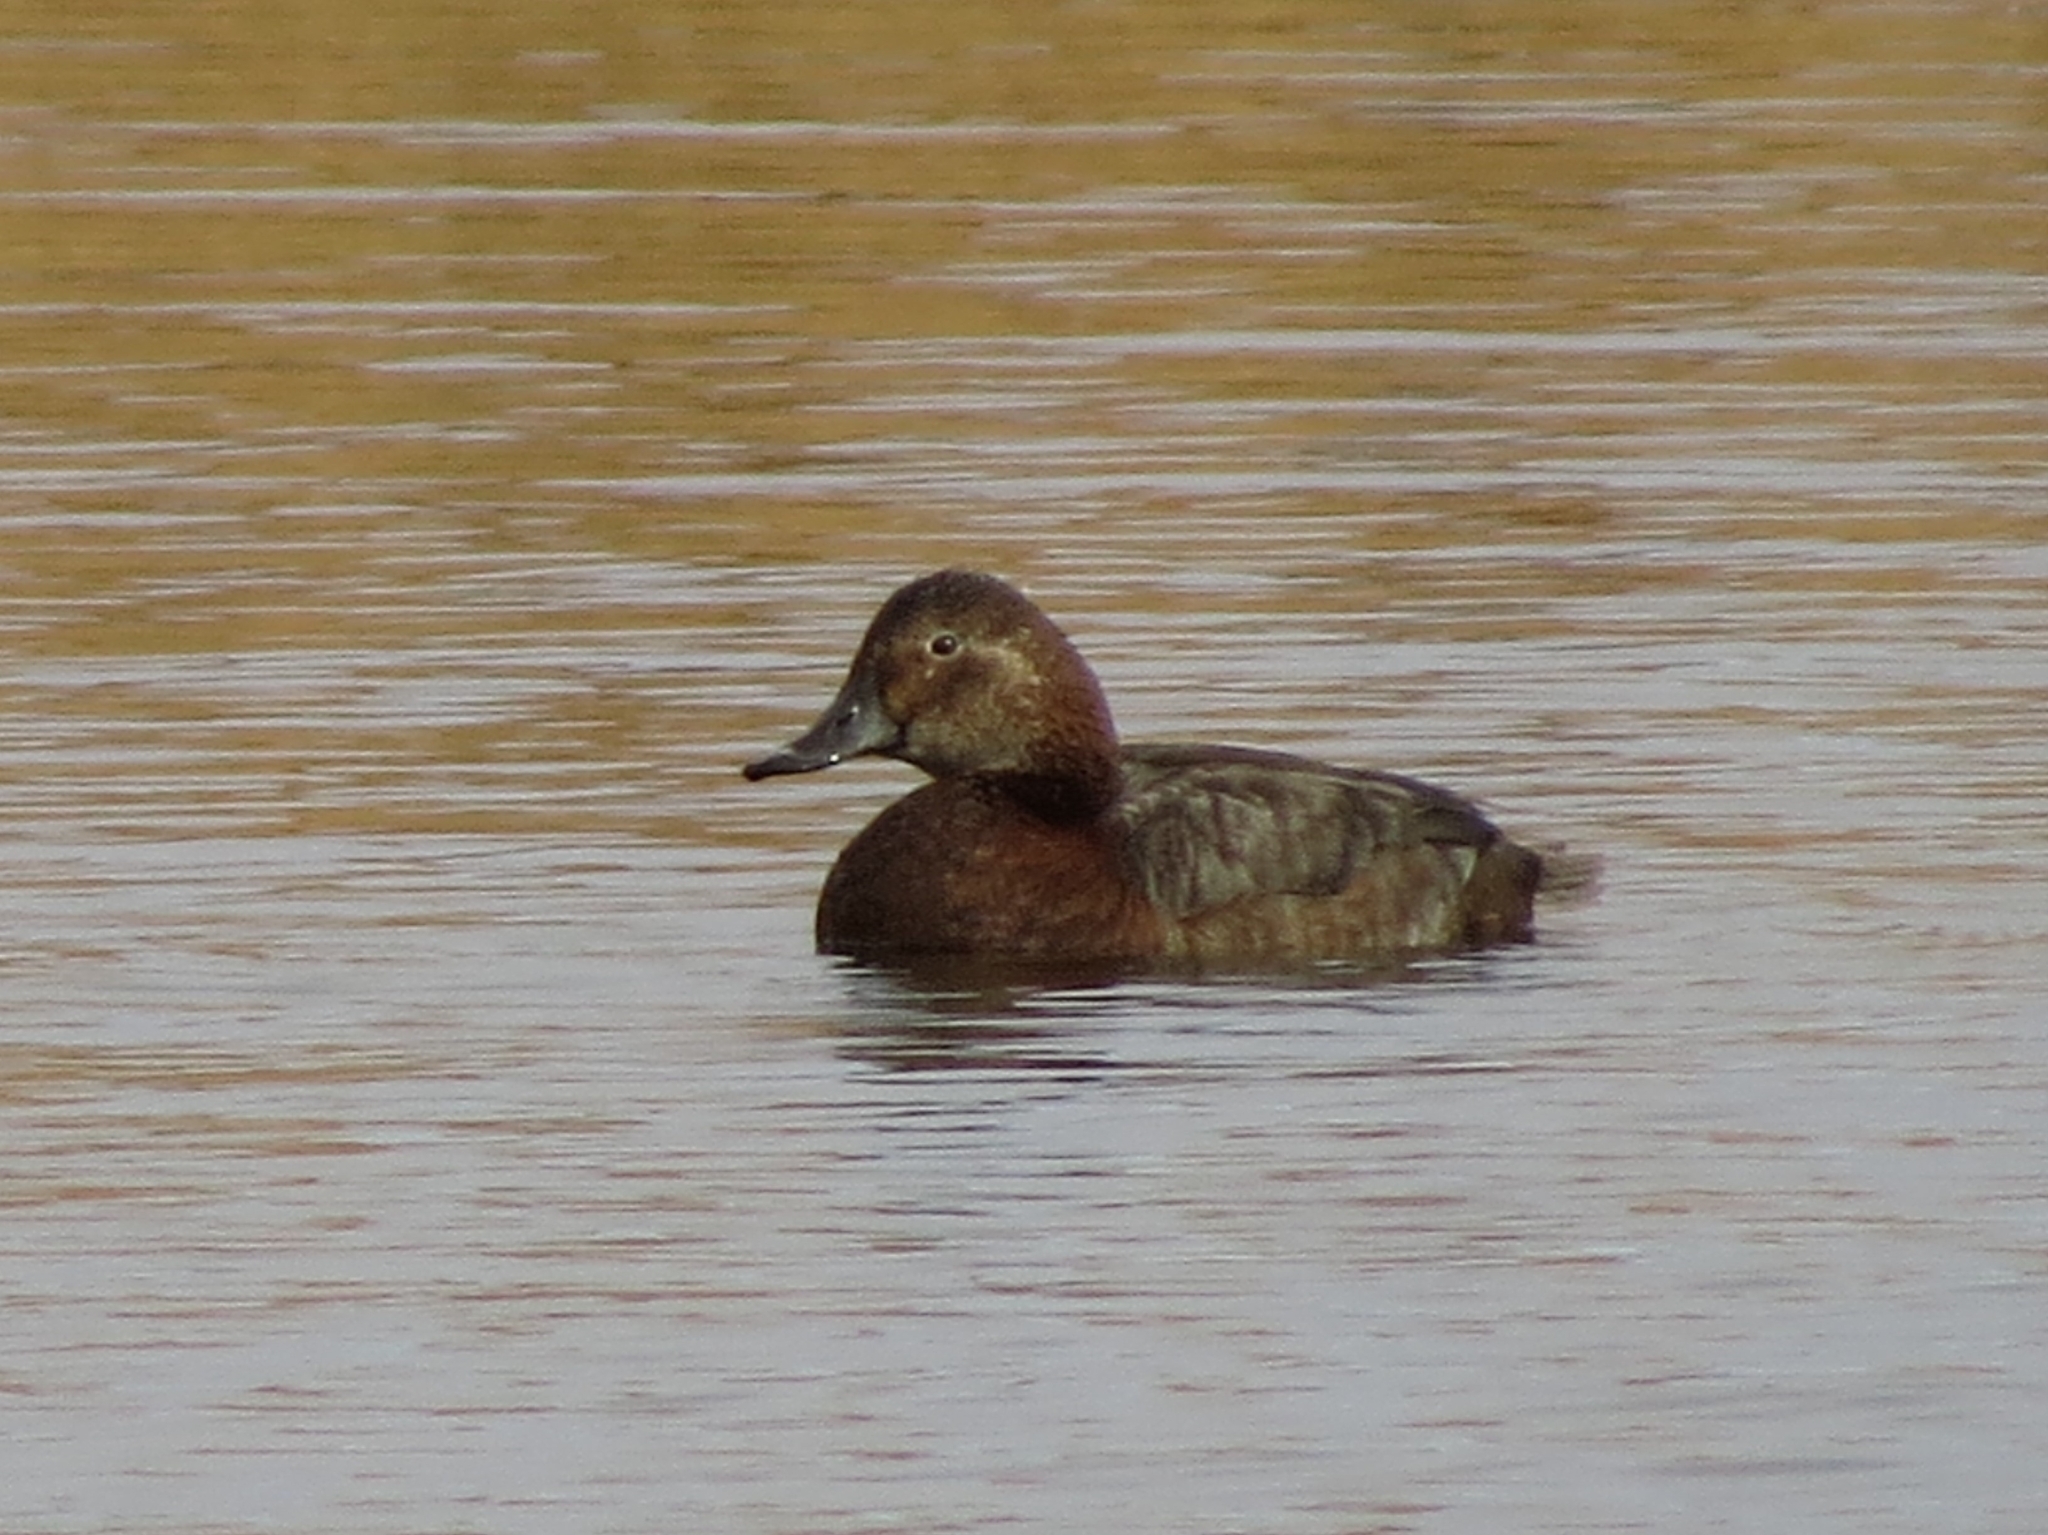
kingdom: Animalia
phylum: Chordata
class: Aves
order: Anseriformes
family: Anatidae
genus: Aythya
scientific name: Aythya ferina
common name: Common pochard
